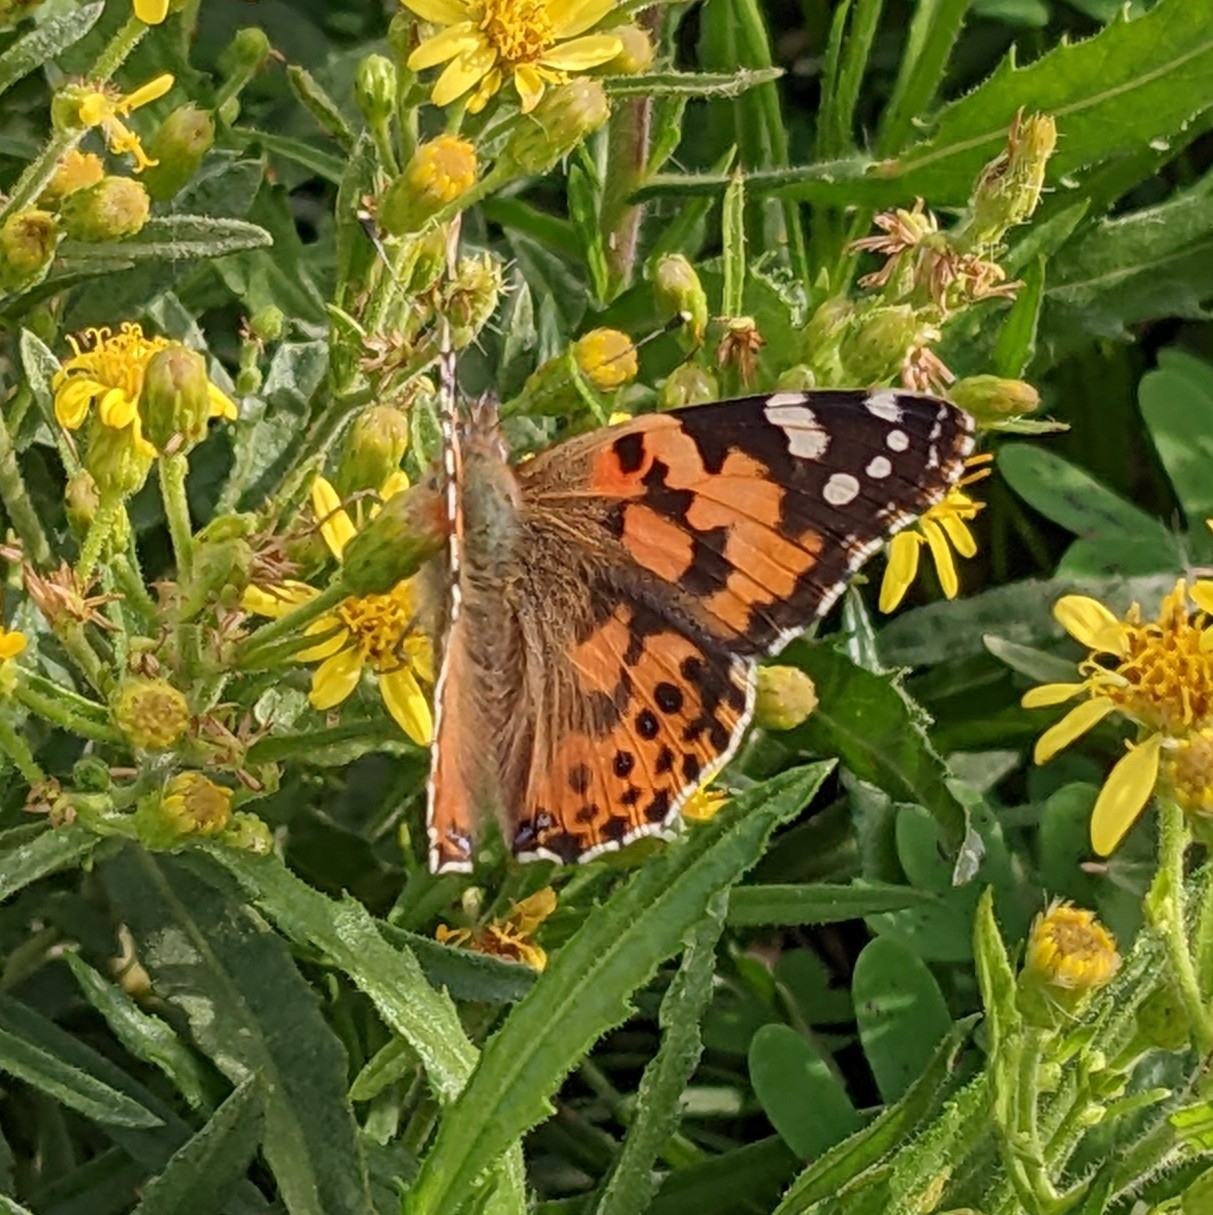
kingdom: Animalia
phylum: Arthropoda
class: Insecta
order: Lepidoptera
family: Nymphalidae
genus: Vanessa
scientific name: Vanessa cardui
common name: Painted lady
